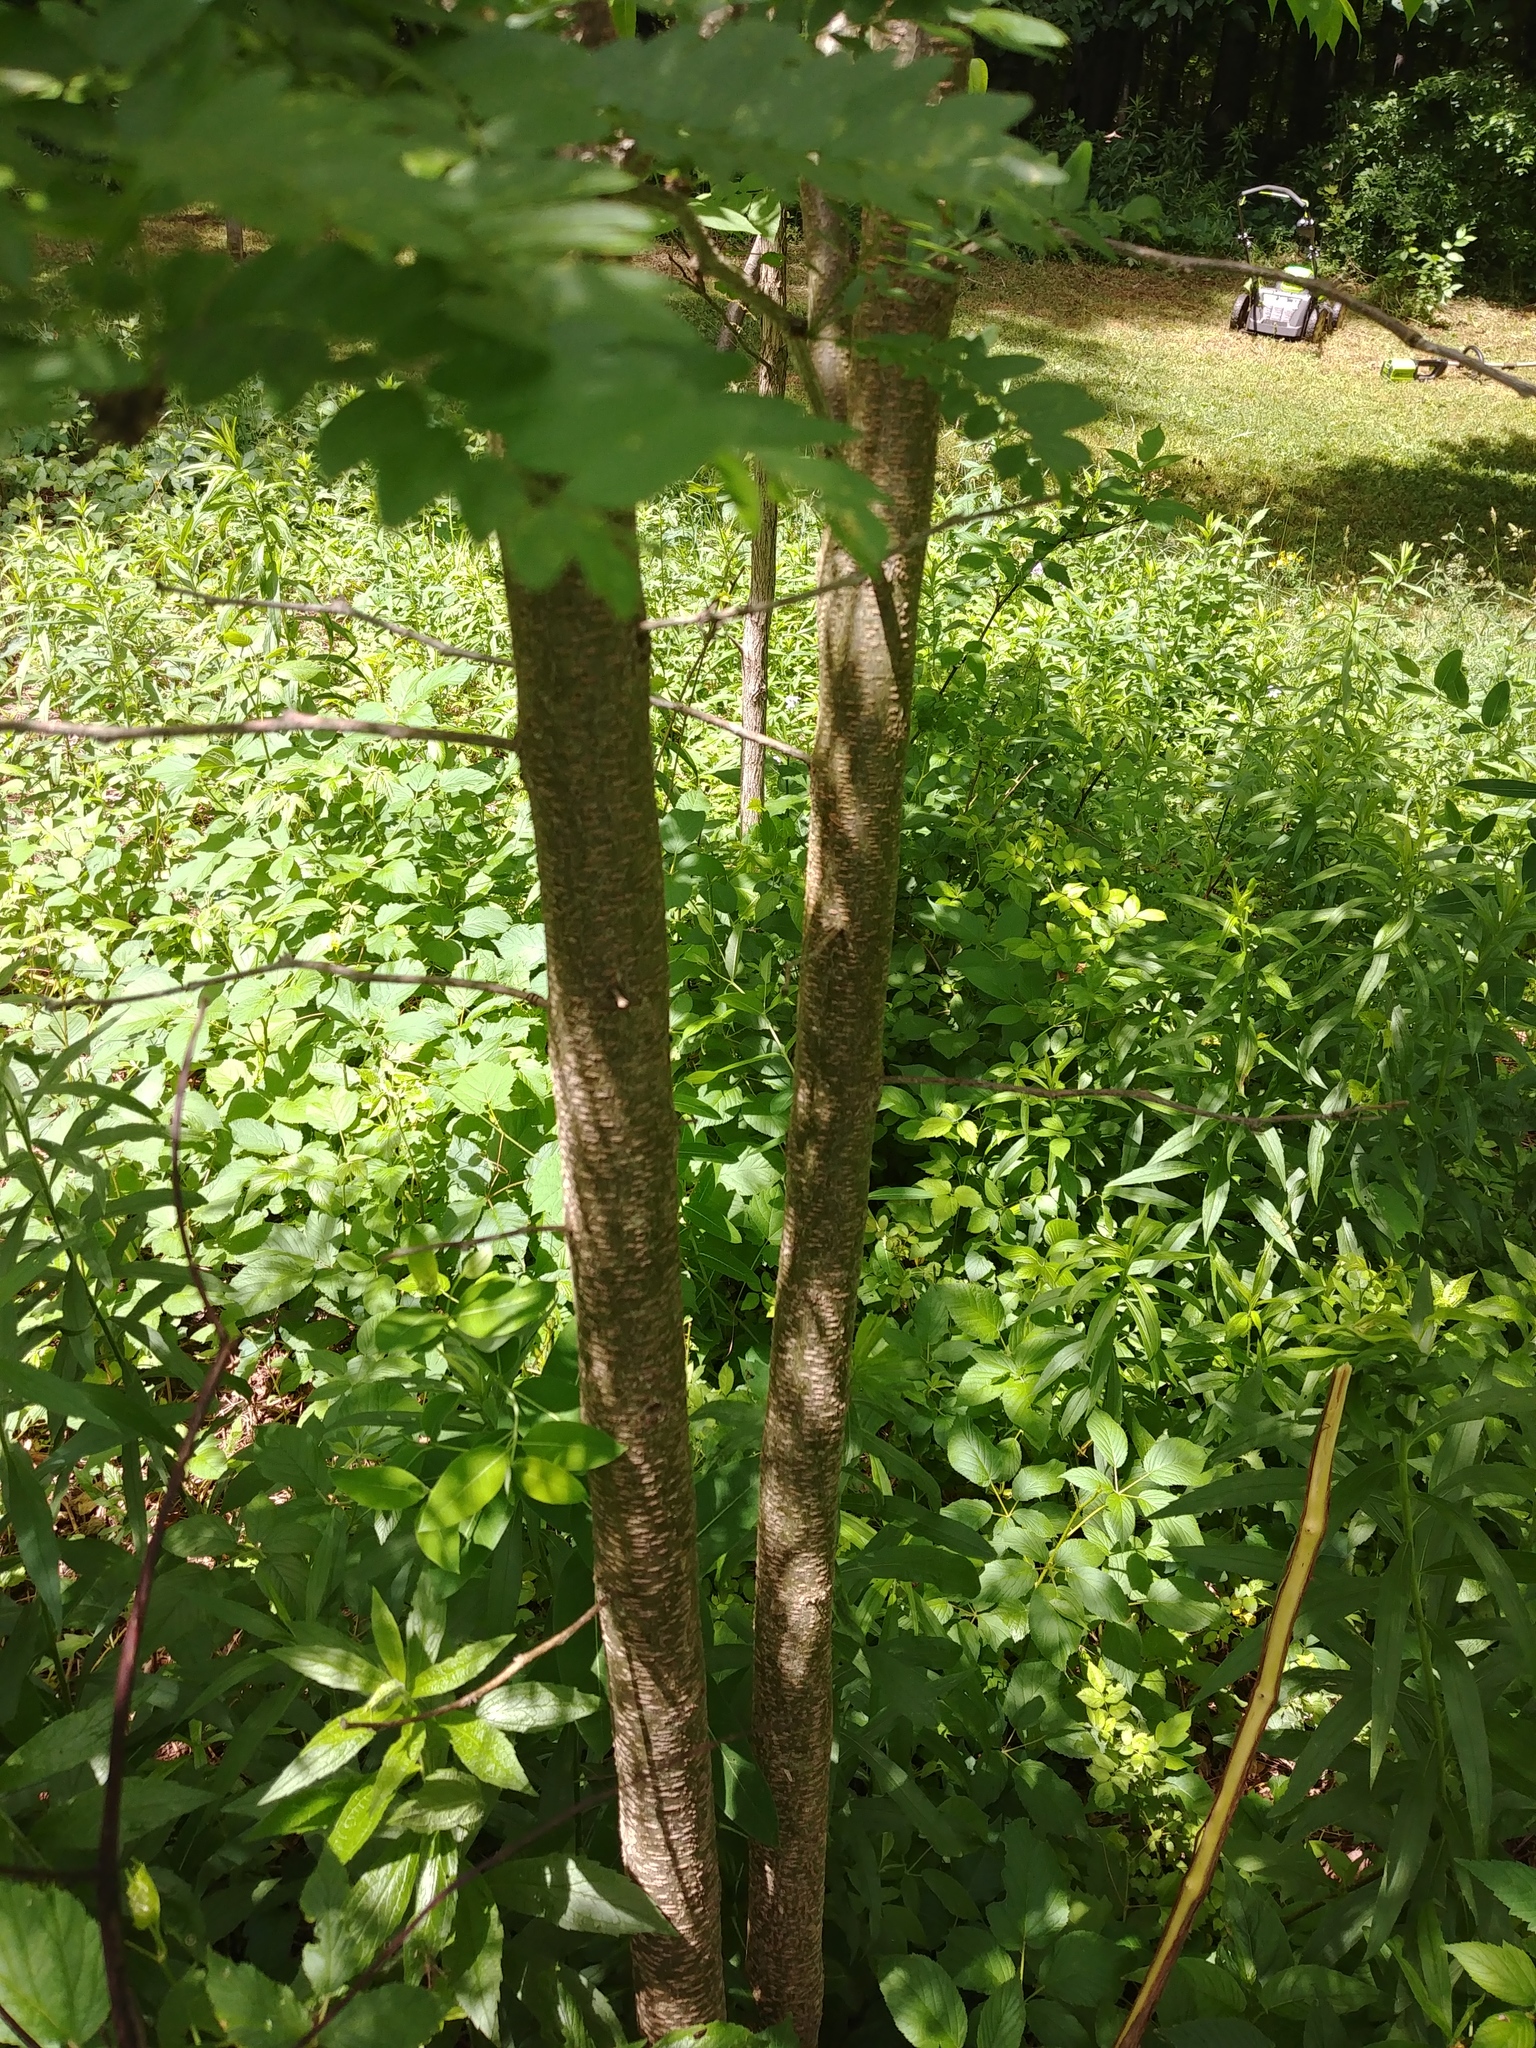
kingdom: Plantae
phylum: Tracheophyta
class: Magnoliopsida
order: Fabales
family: Fabaceae
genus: Gleditsia
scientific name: Gleditsia triacanthos
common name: Common honeylocust
